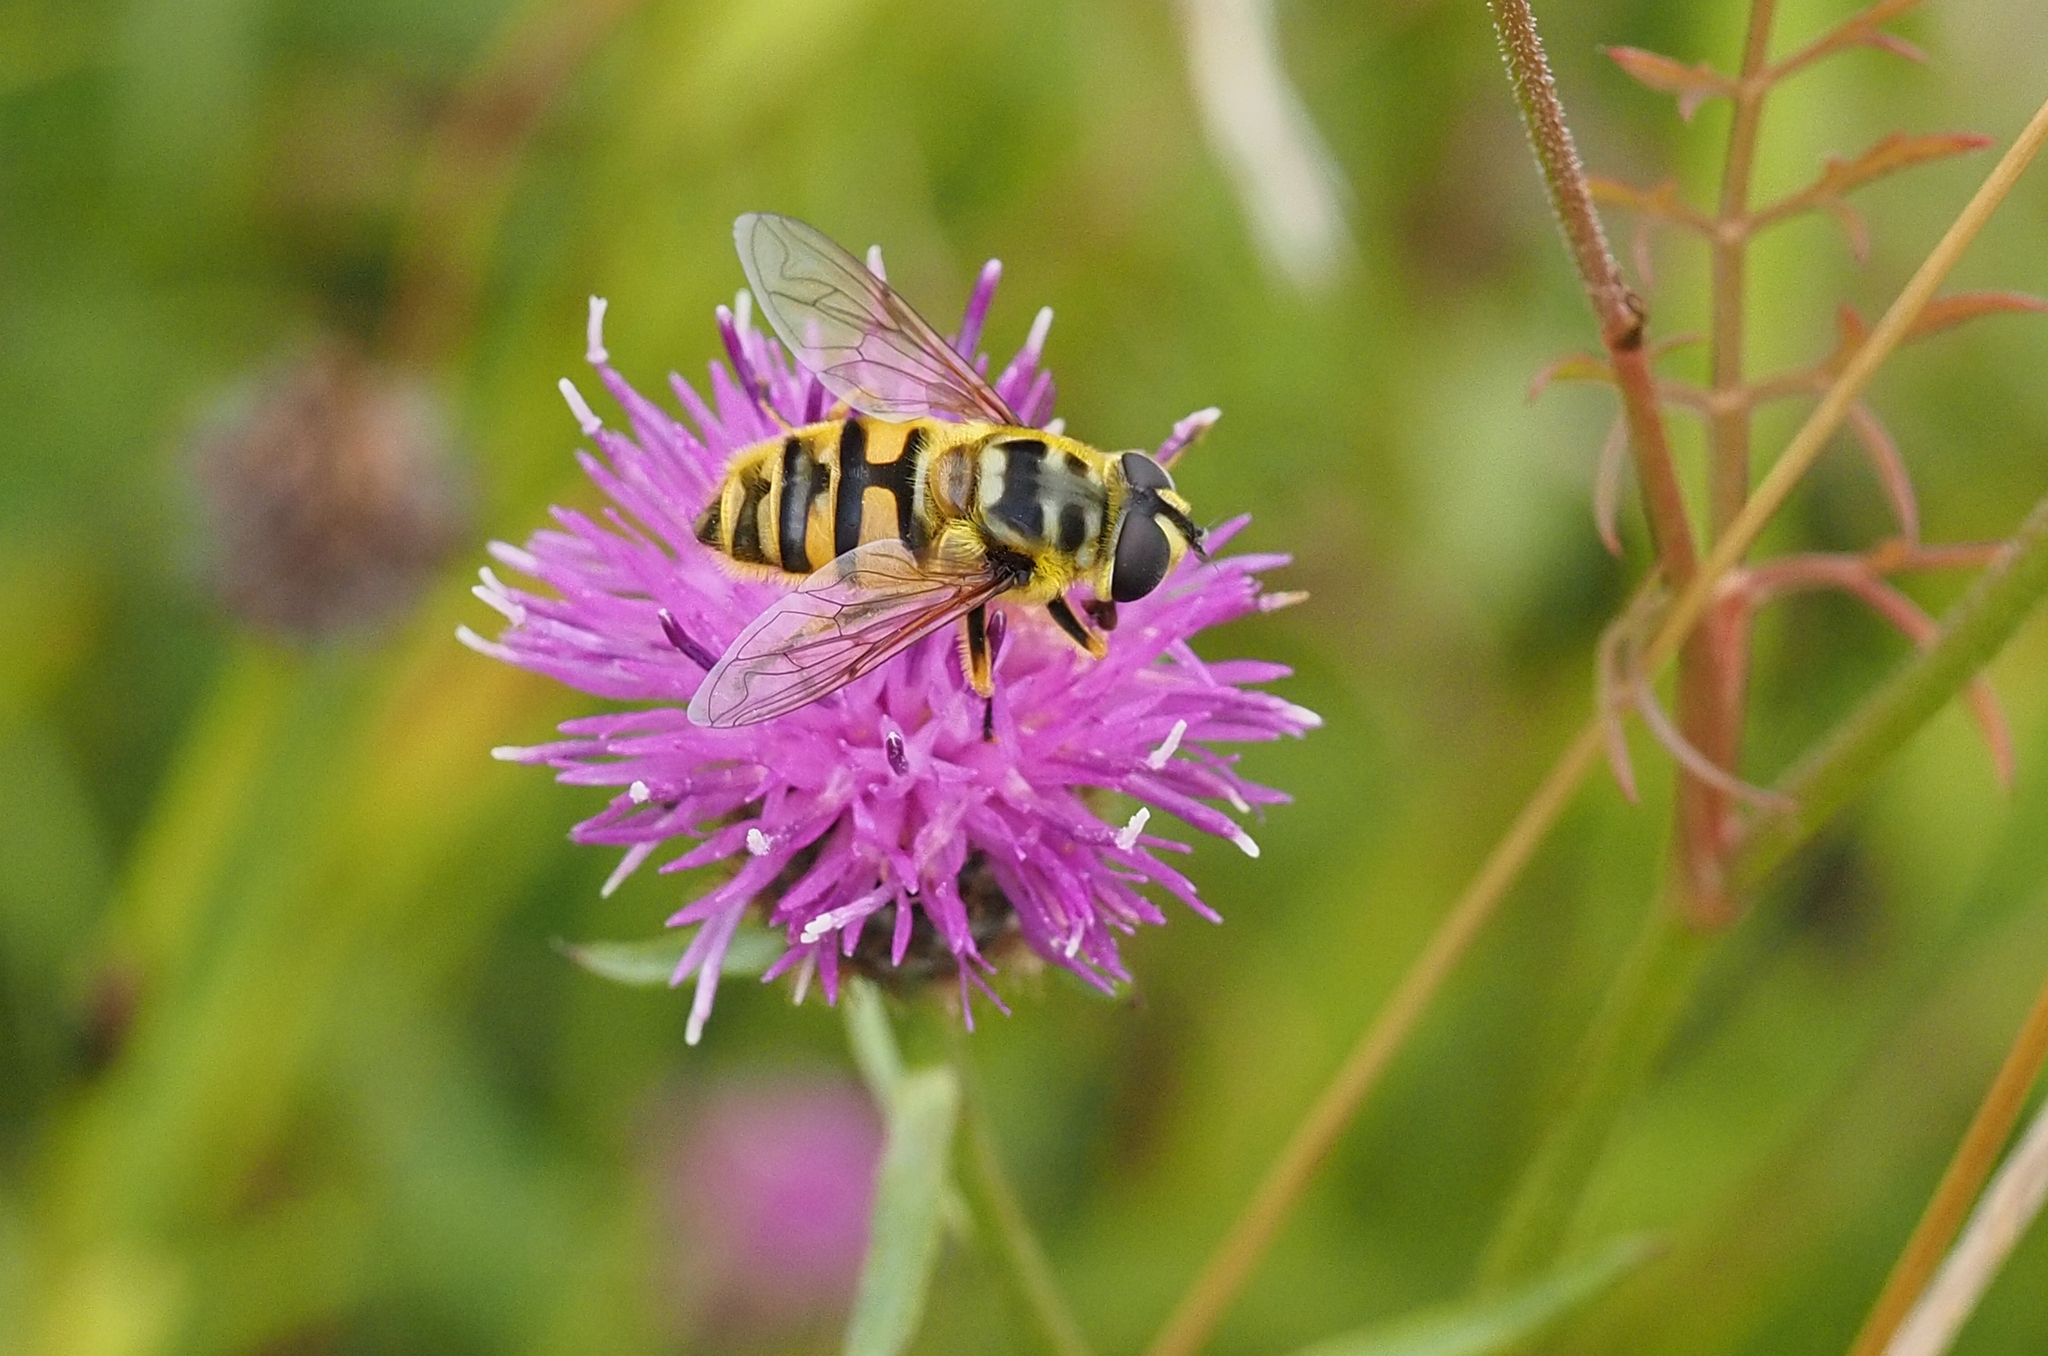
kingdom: Animalia
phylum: Arthropoda
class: Insecta
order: Diptera
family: Syrphidae
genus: Myathropa
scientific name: Myathropa florea
